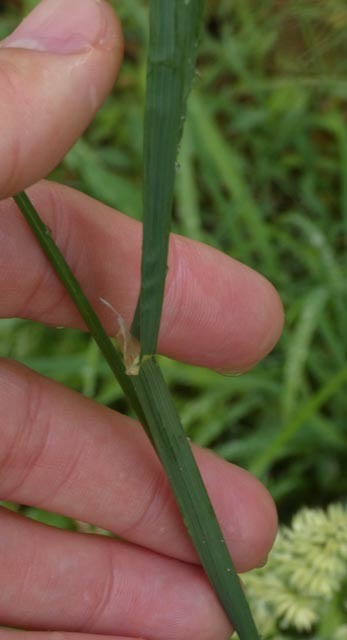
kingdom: Plantae
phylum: Tracheophyta
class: Liliopsida
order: Poales
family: Poaceae
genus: Dactylis
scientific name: Dactylis glomerata
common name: Orchardgrass
